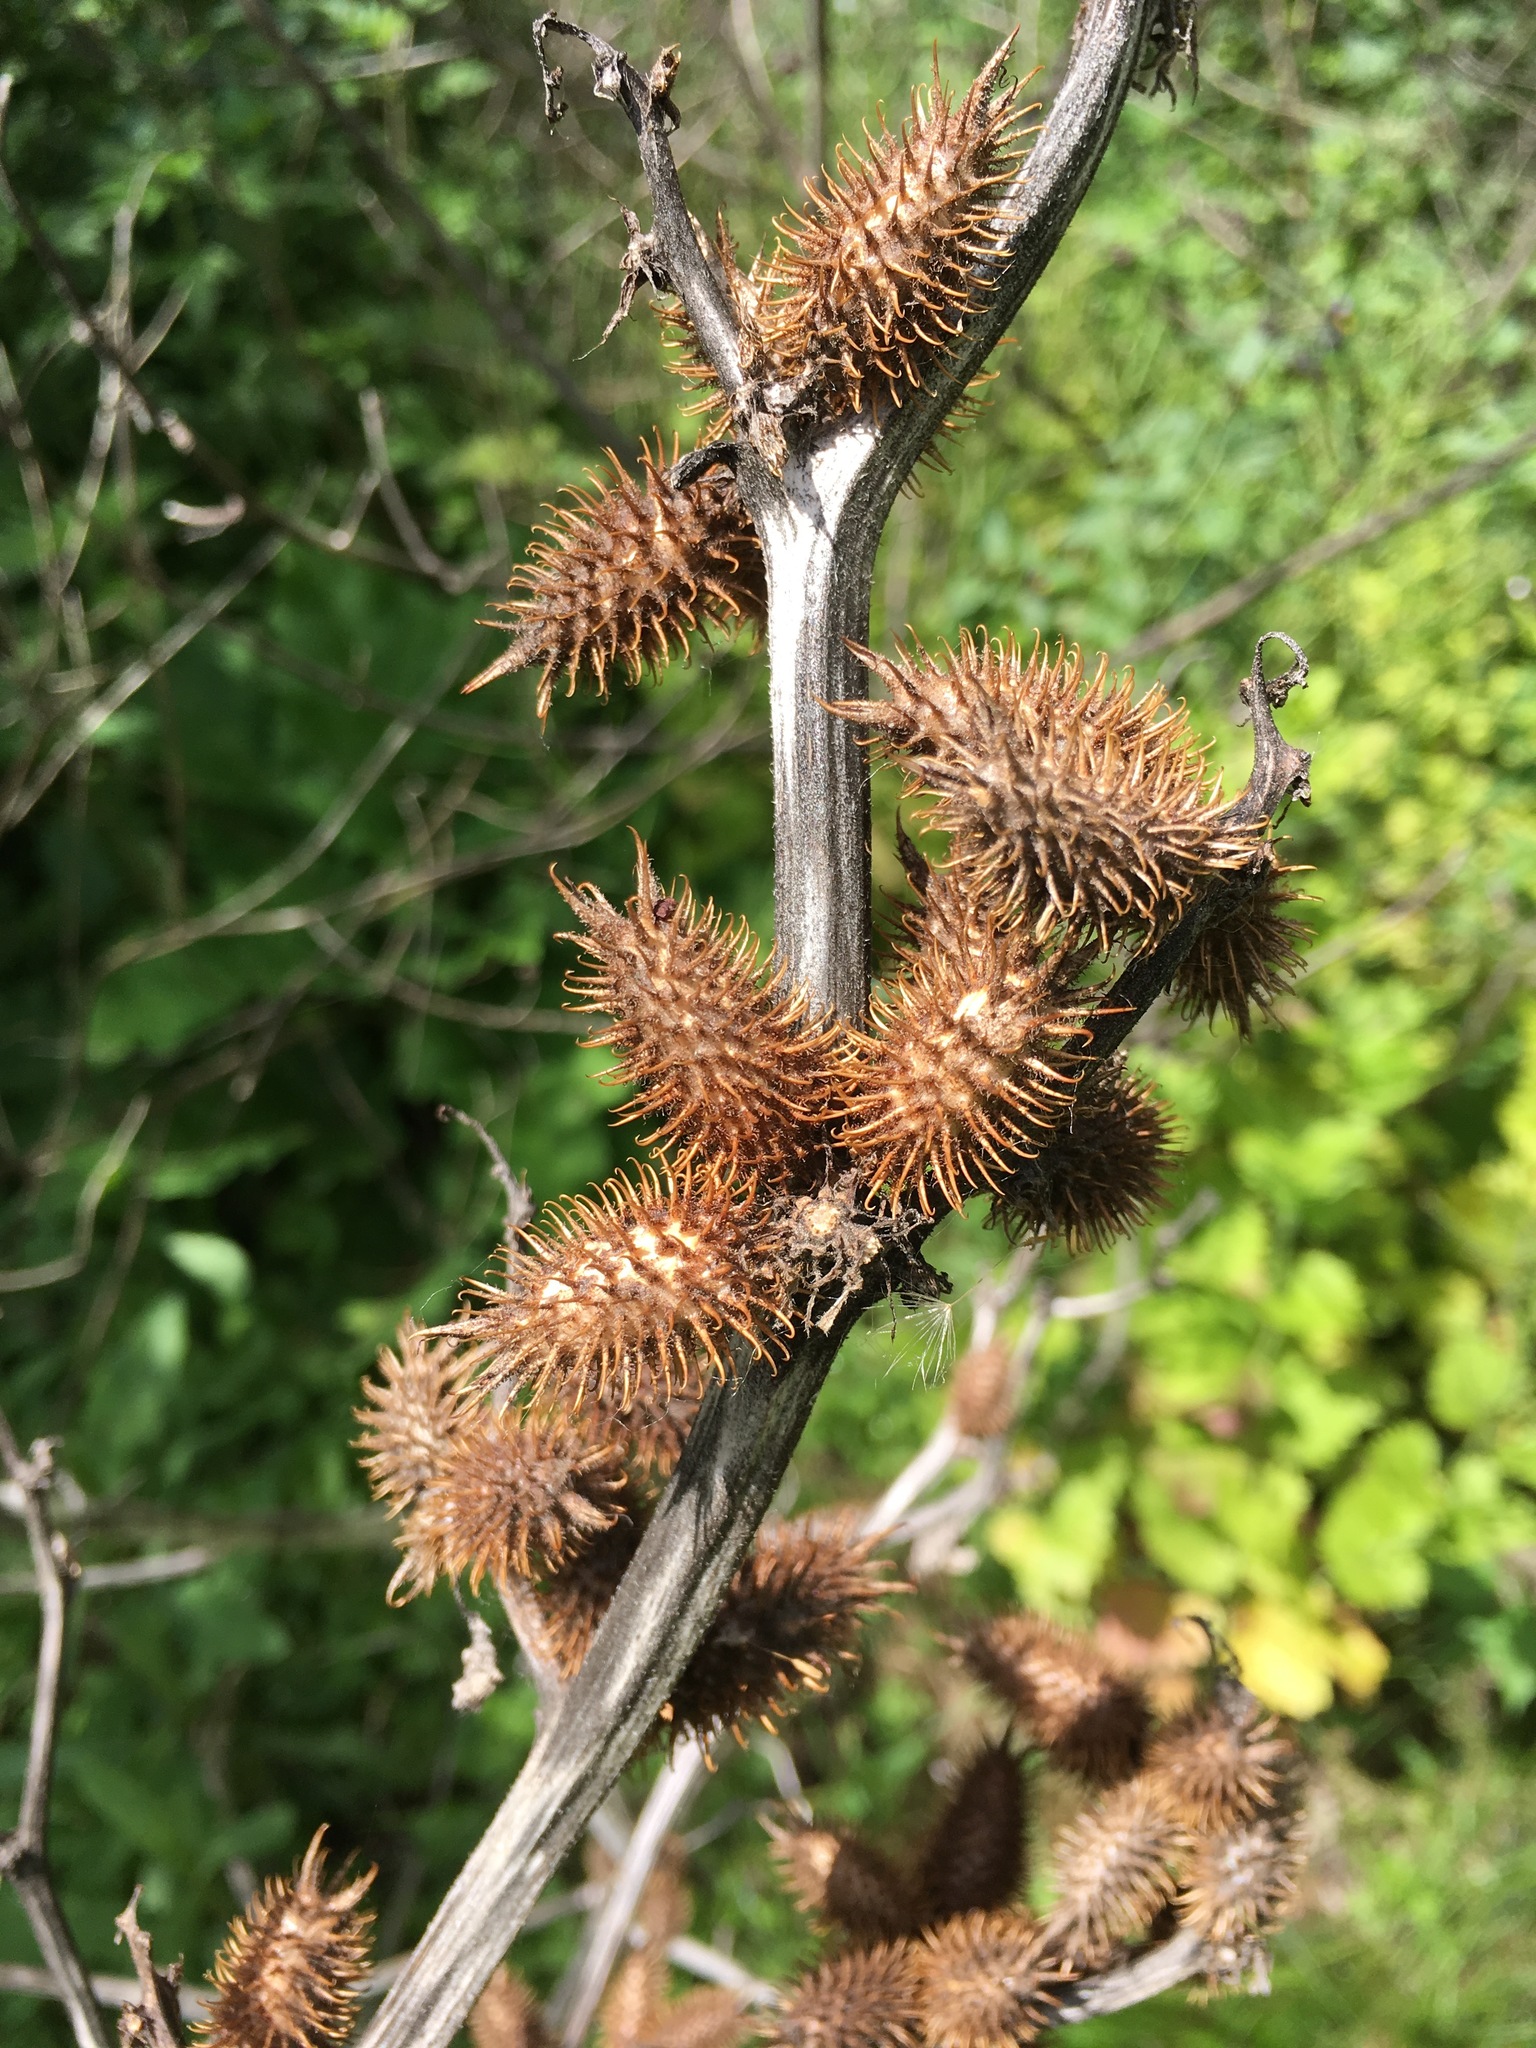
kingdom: Plantae
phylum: Tracheophyta
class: Magnoliopsida
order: Asterales
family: Asteraceae
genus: Xanthium
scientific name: Xanthium strumarium
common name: Rough cocklebur
